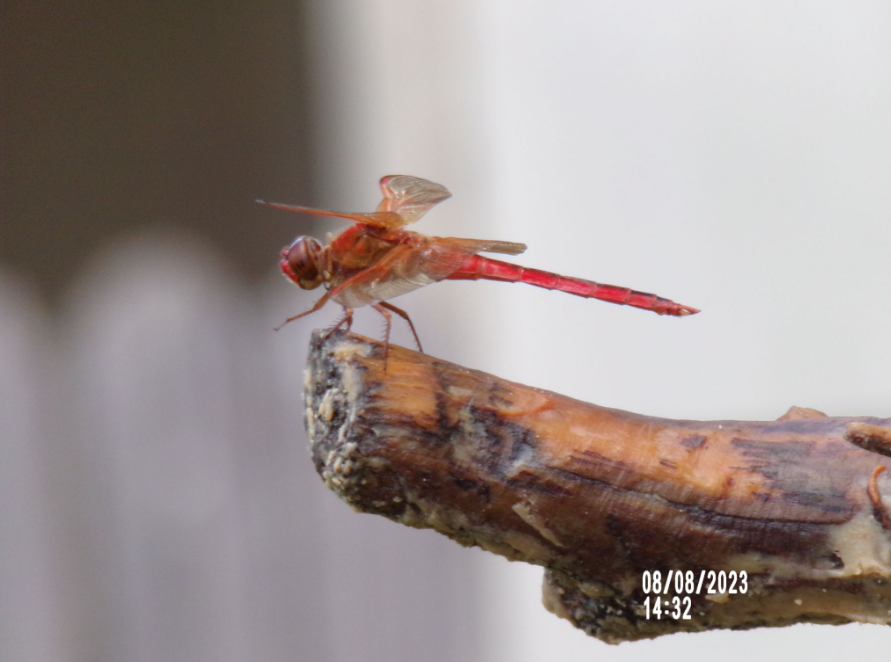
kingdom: Animalia
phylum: Arthropoda
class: Insecta
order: Odonata
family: Libellulidae
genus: Libellula
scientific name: Libellula needhami
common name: Needham's skimmer
